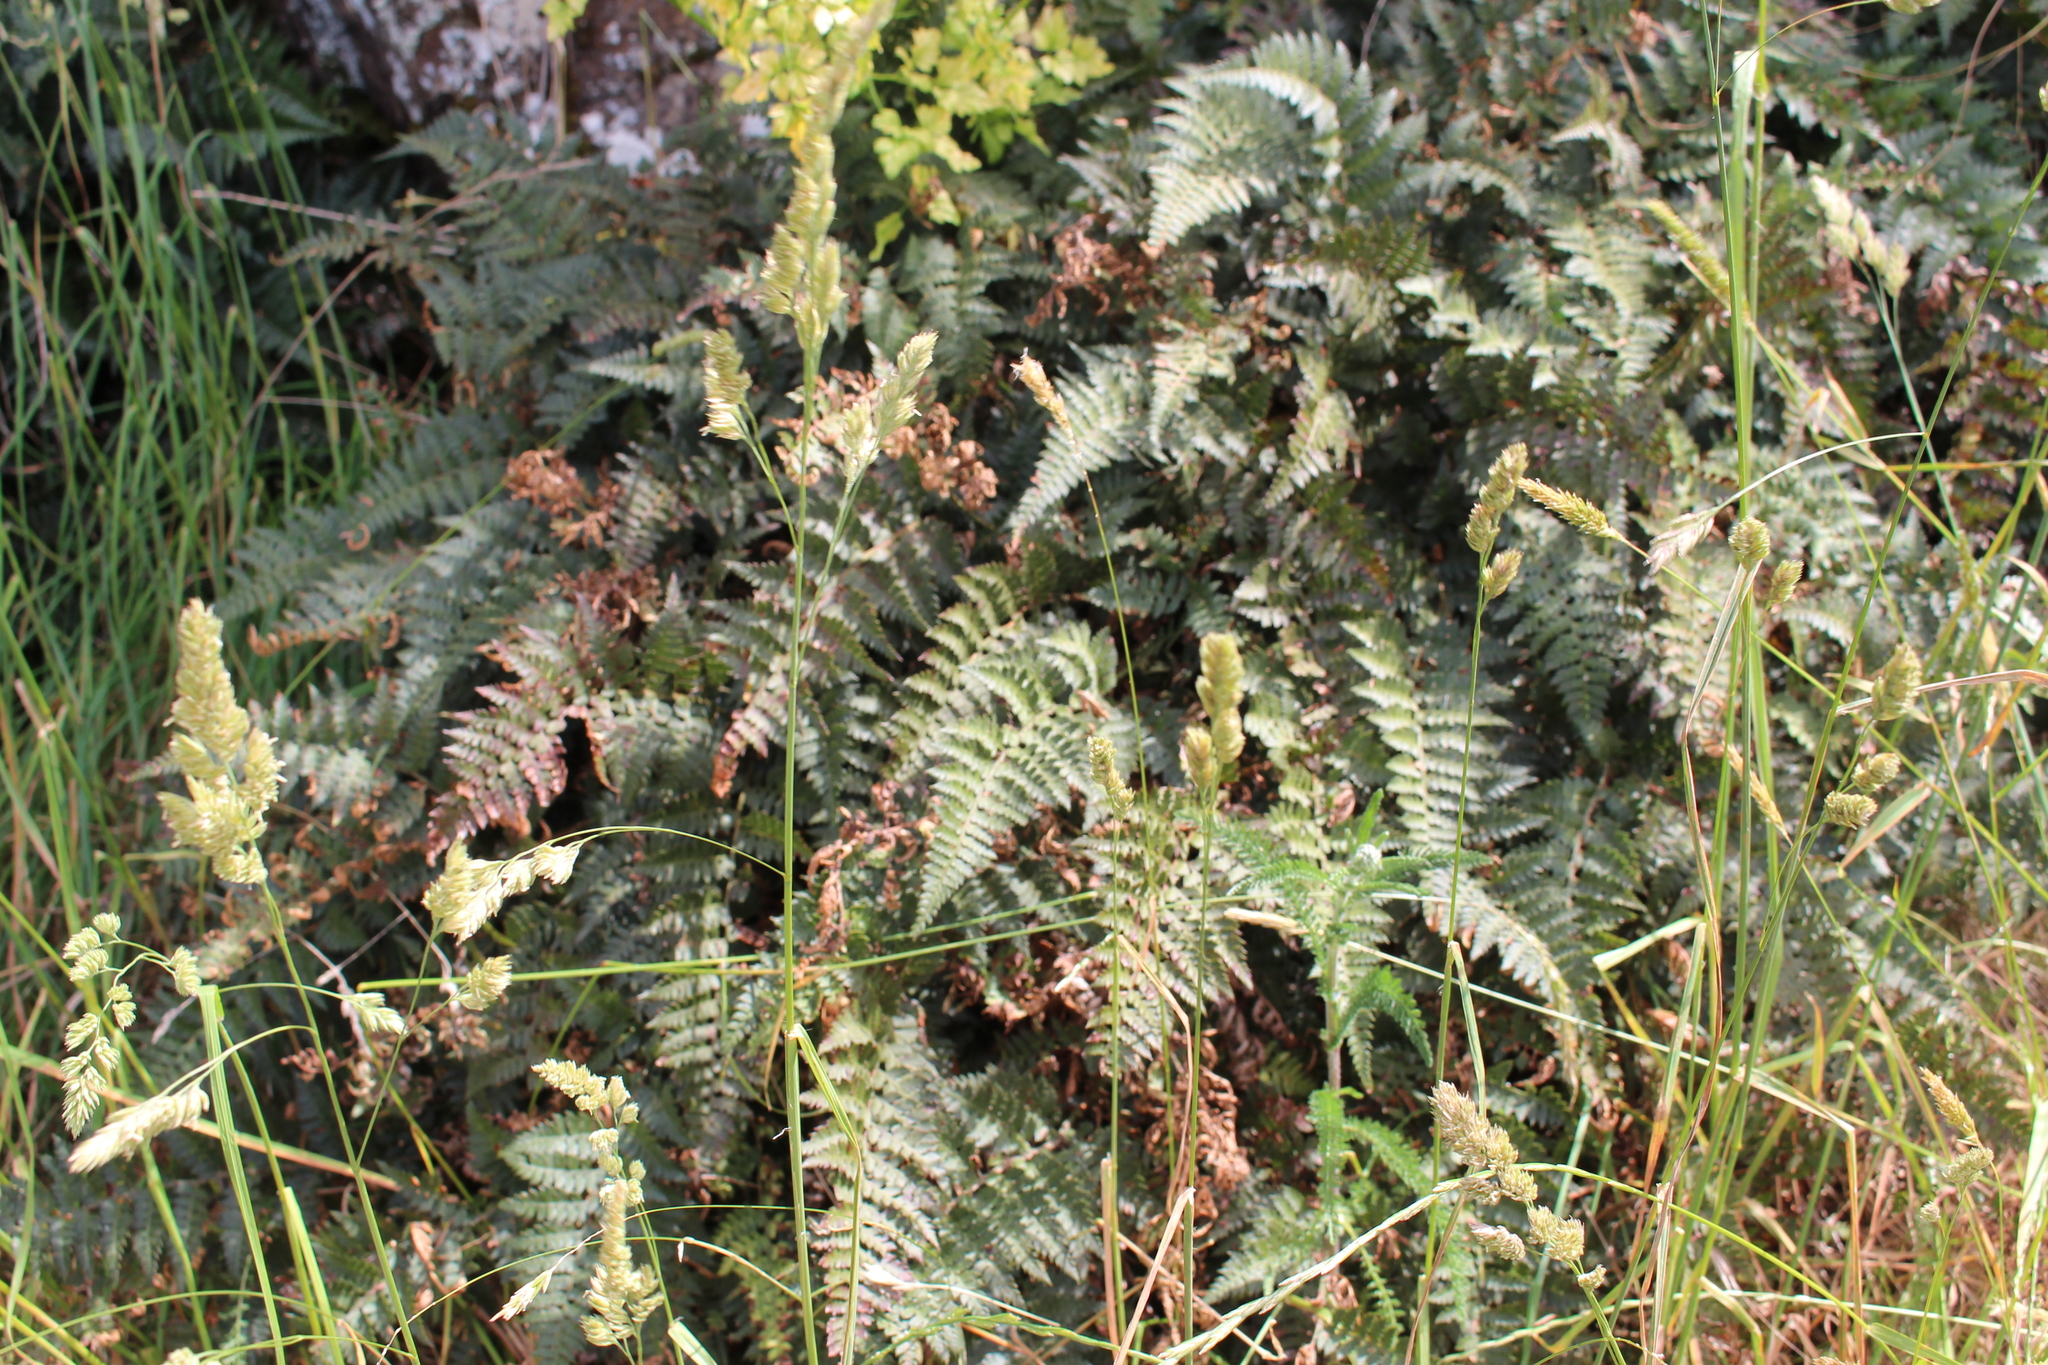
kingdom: Plantae
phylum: Tracheophyta
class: Polypodiopsida
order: Polypodiales
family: Dryopteridaceae
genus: Polystichum
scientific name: Polystichum oculatum
